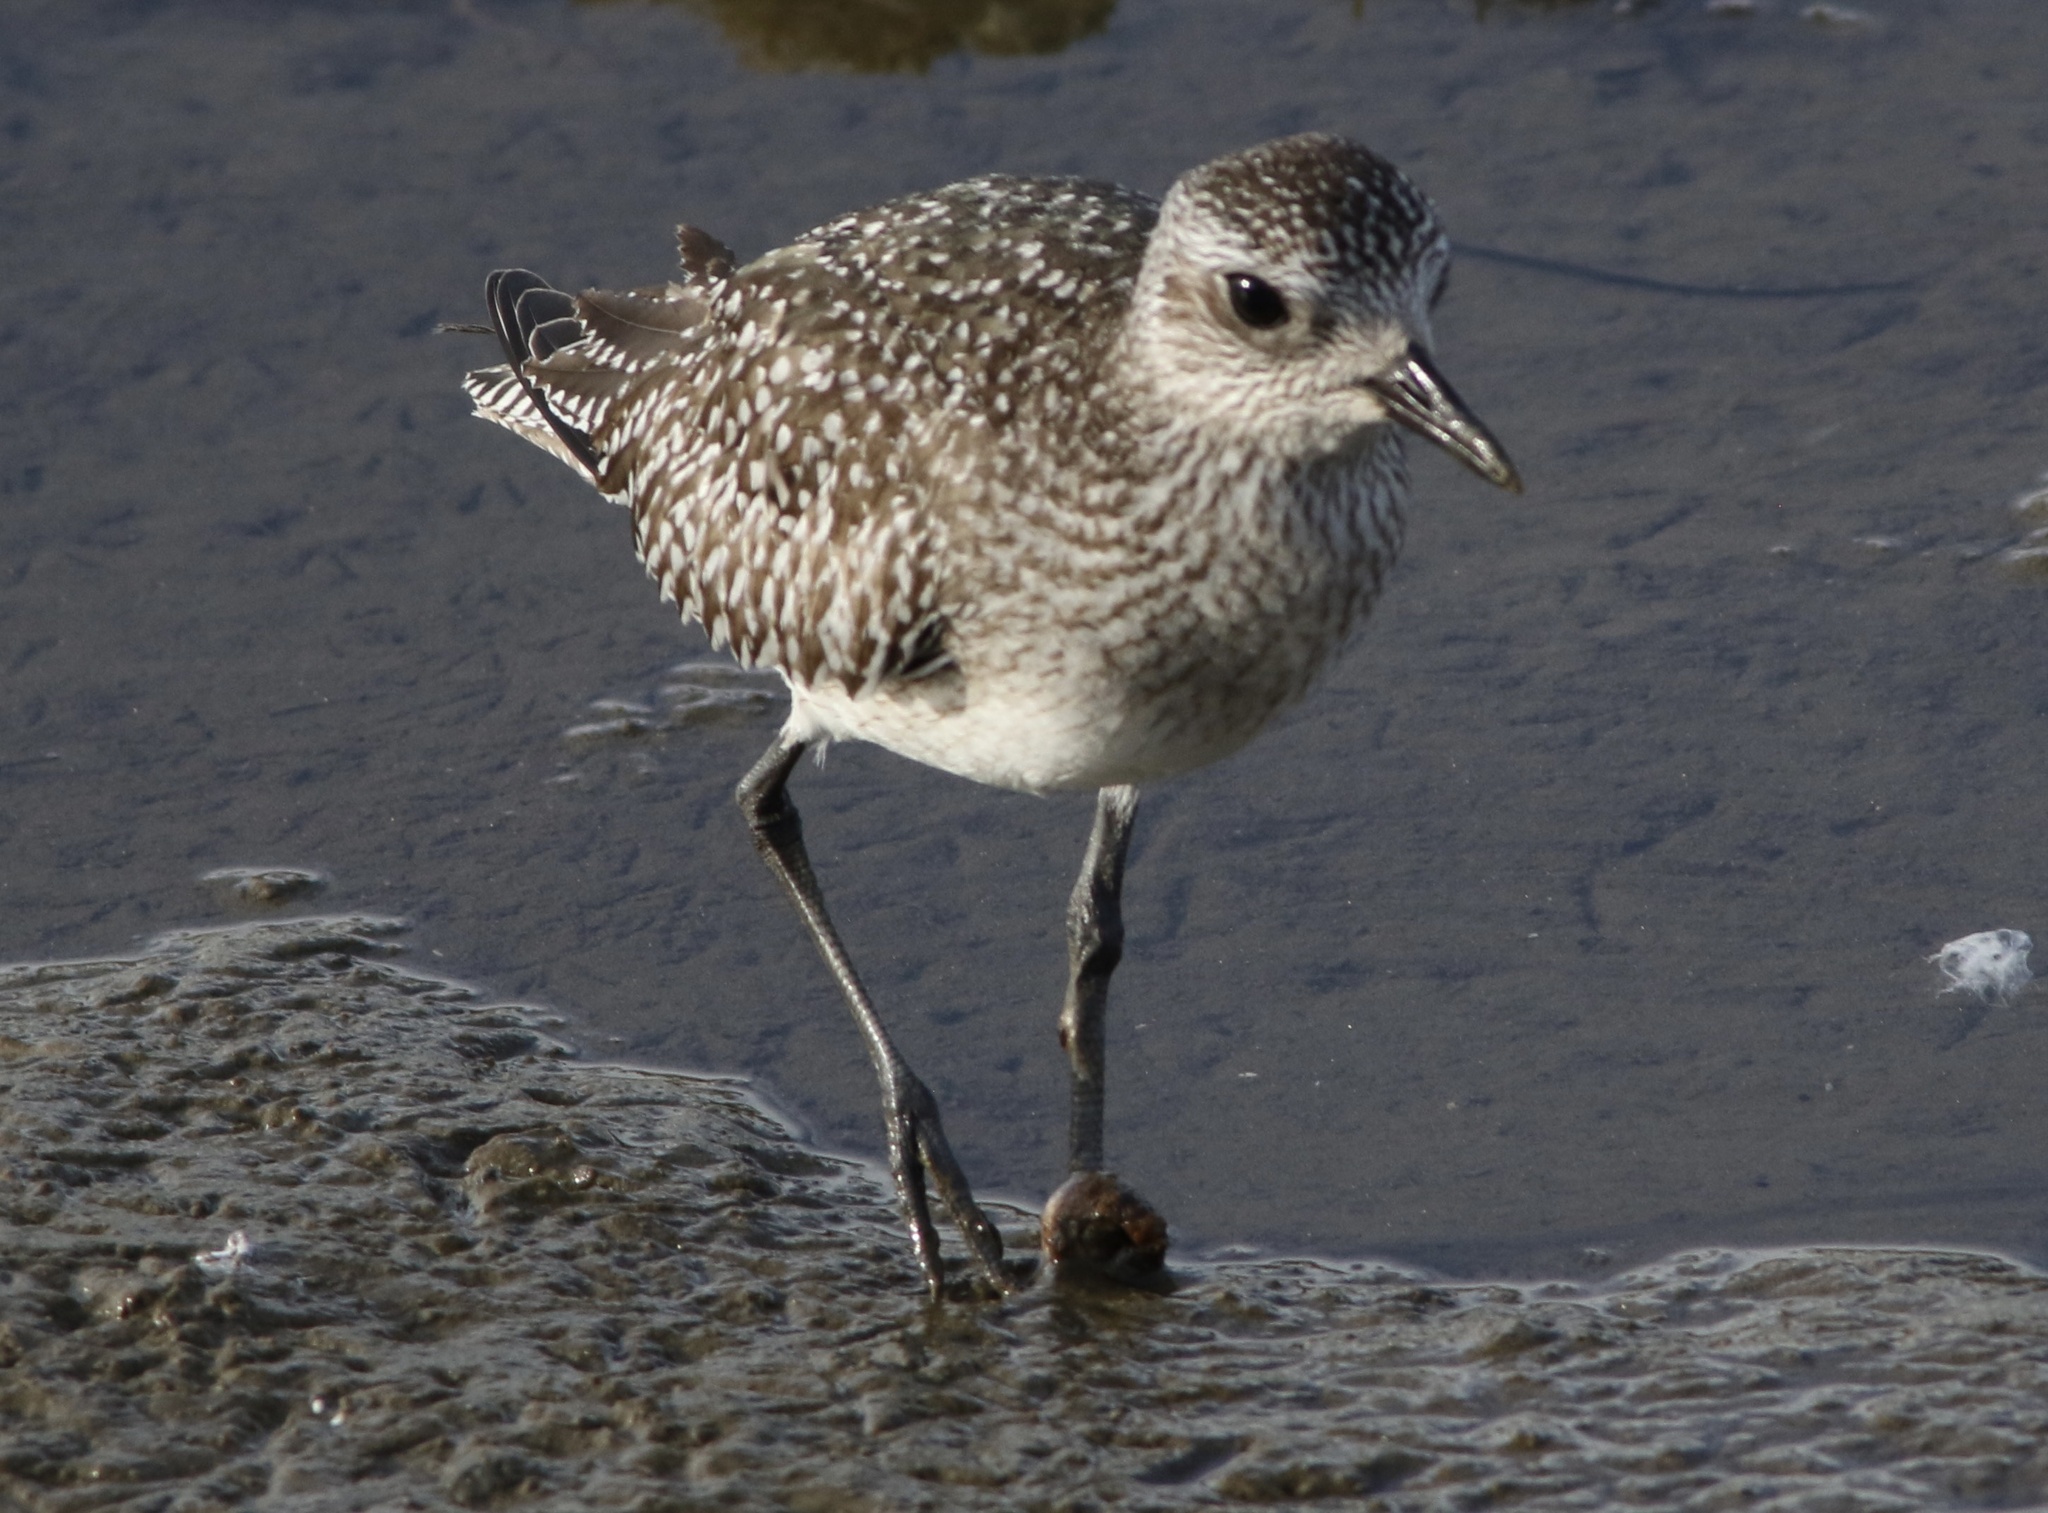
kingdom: Animalia
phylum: Chordata
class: Aves
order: Charadriiformes
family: Charadriidae
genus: Pluvialis
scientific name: Pluvialis squatarola
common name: Grey plover
